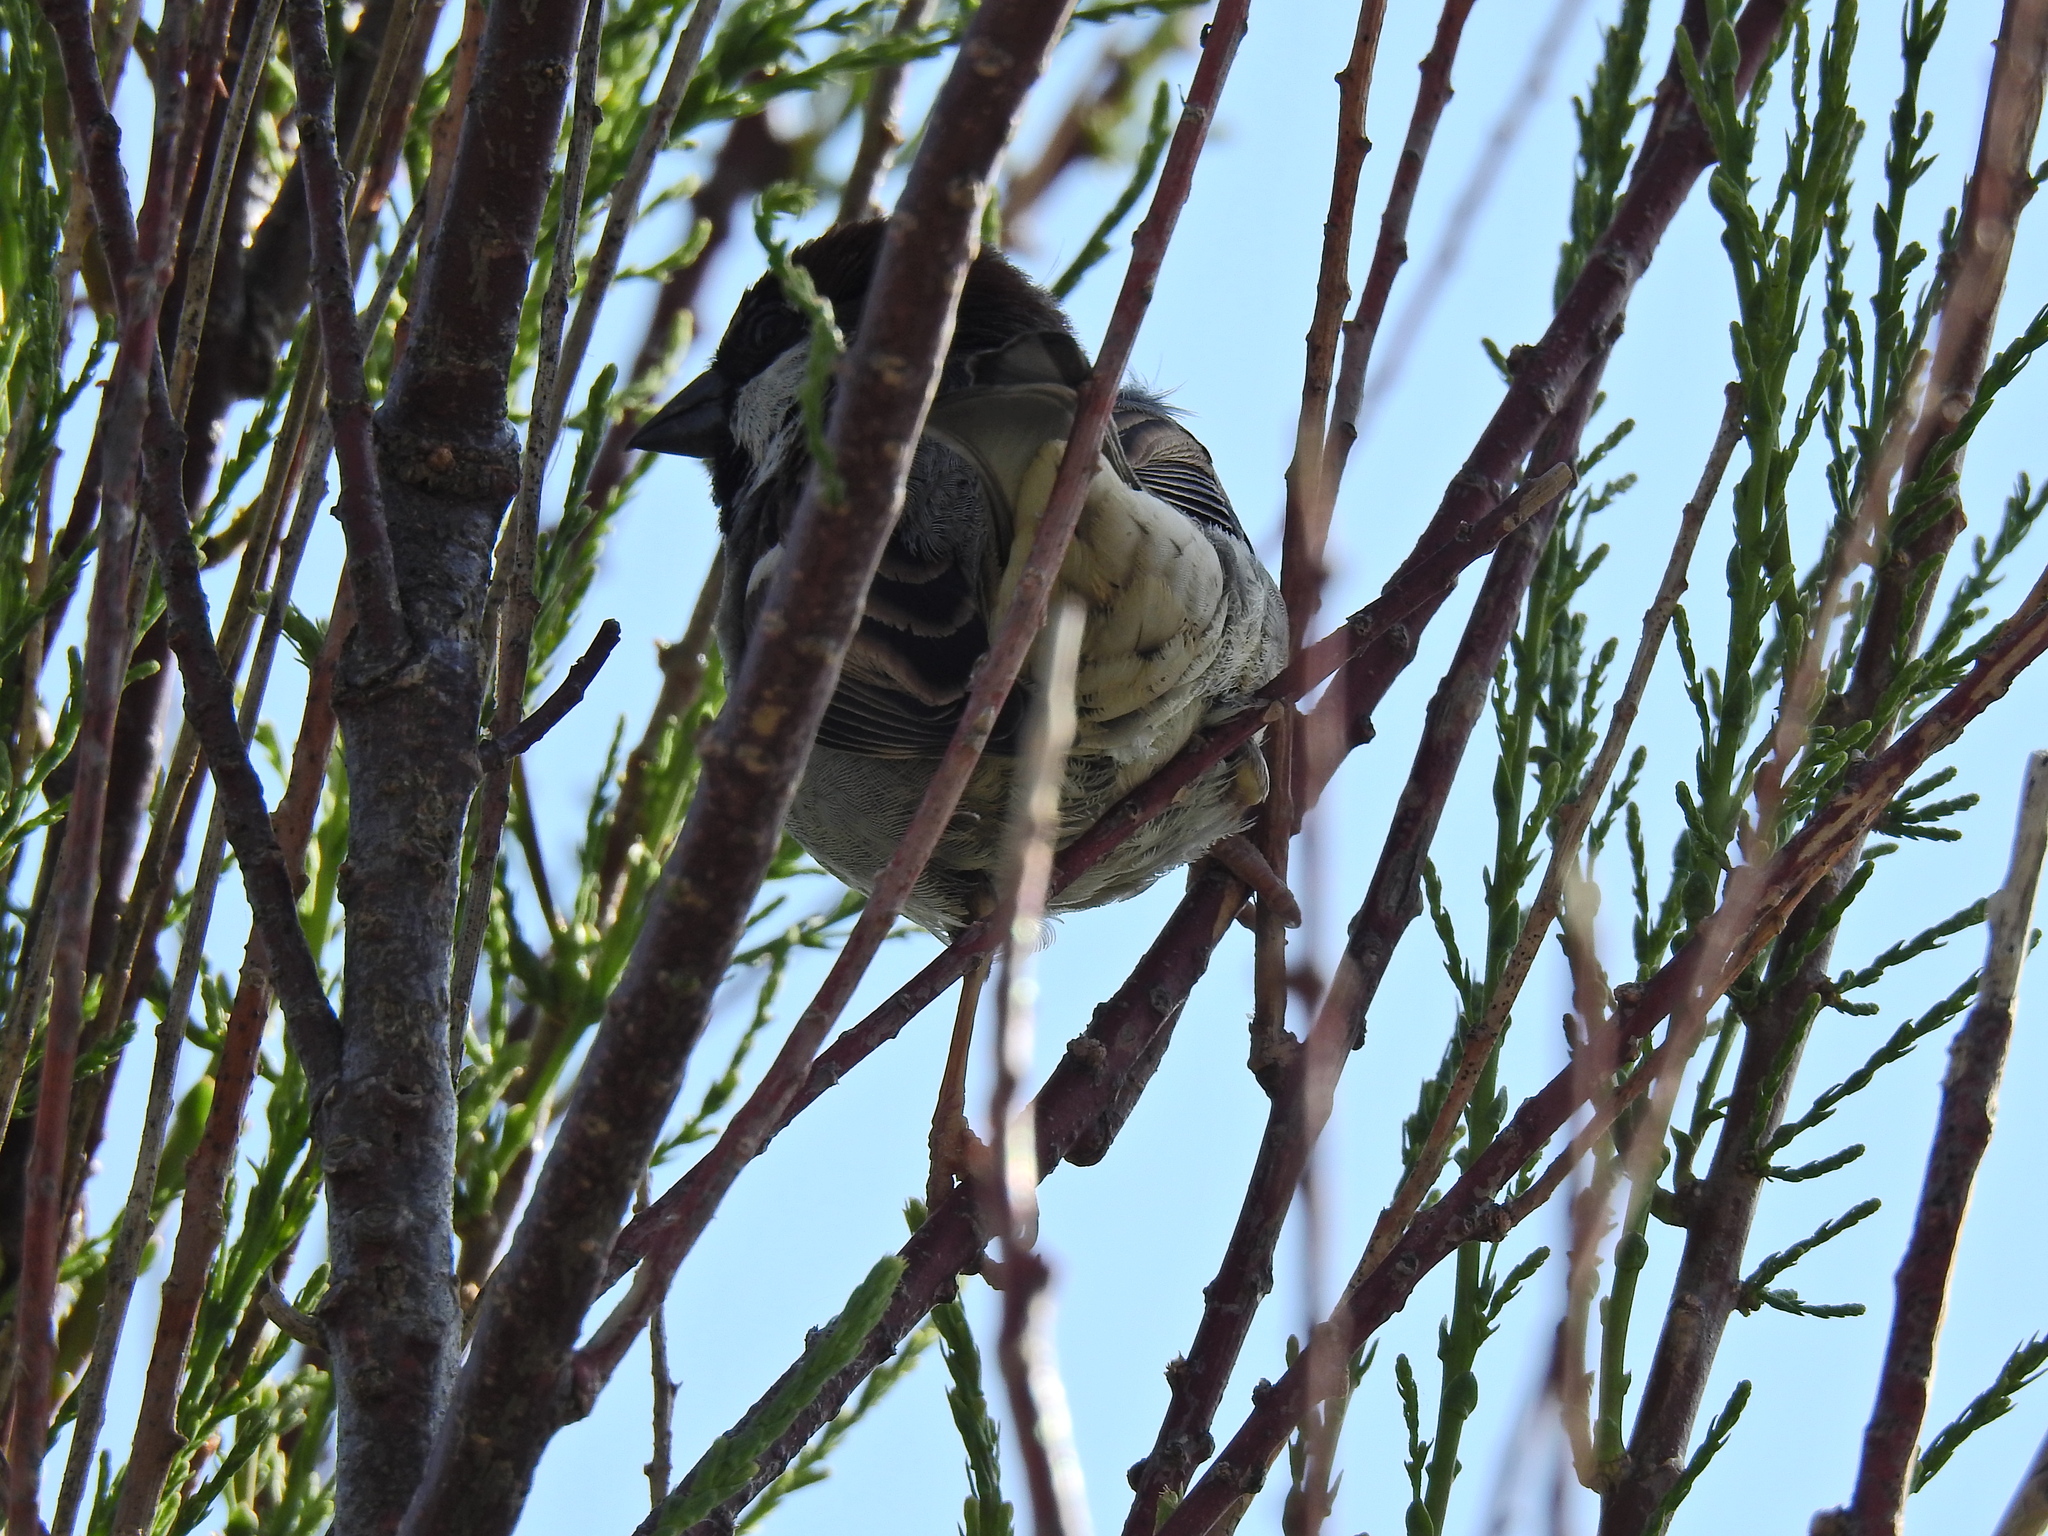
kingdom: Animalia
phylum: Chordata
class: Aves
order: Passeriformes
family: Passeridae
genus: Passer
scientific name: Passer domesticus
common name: House sparrow
